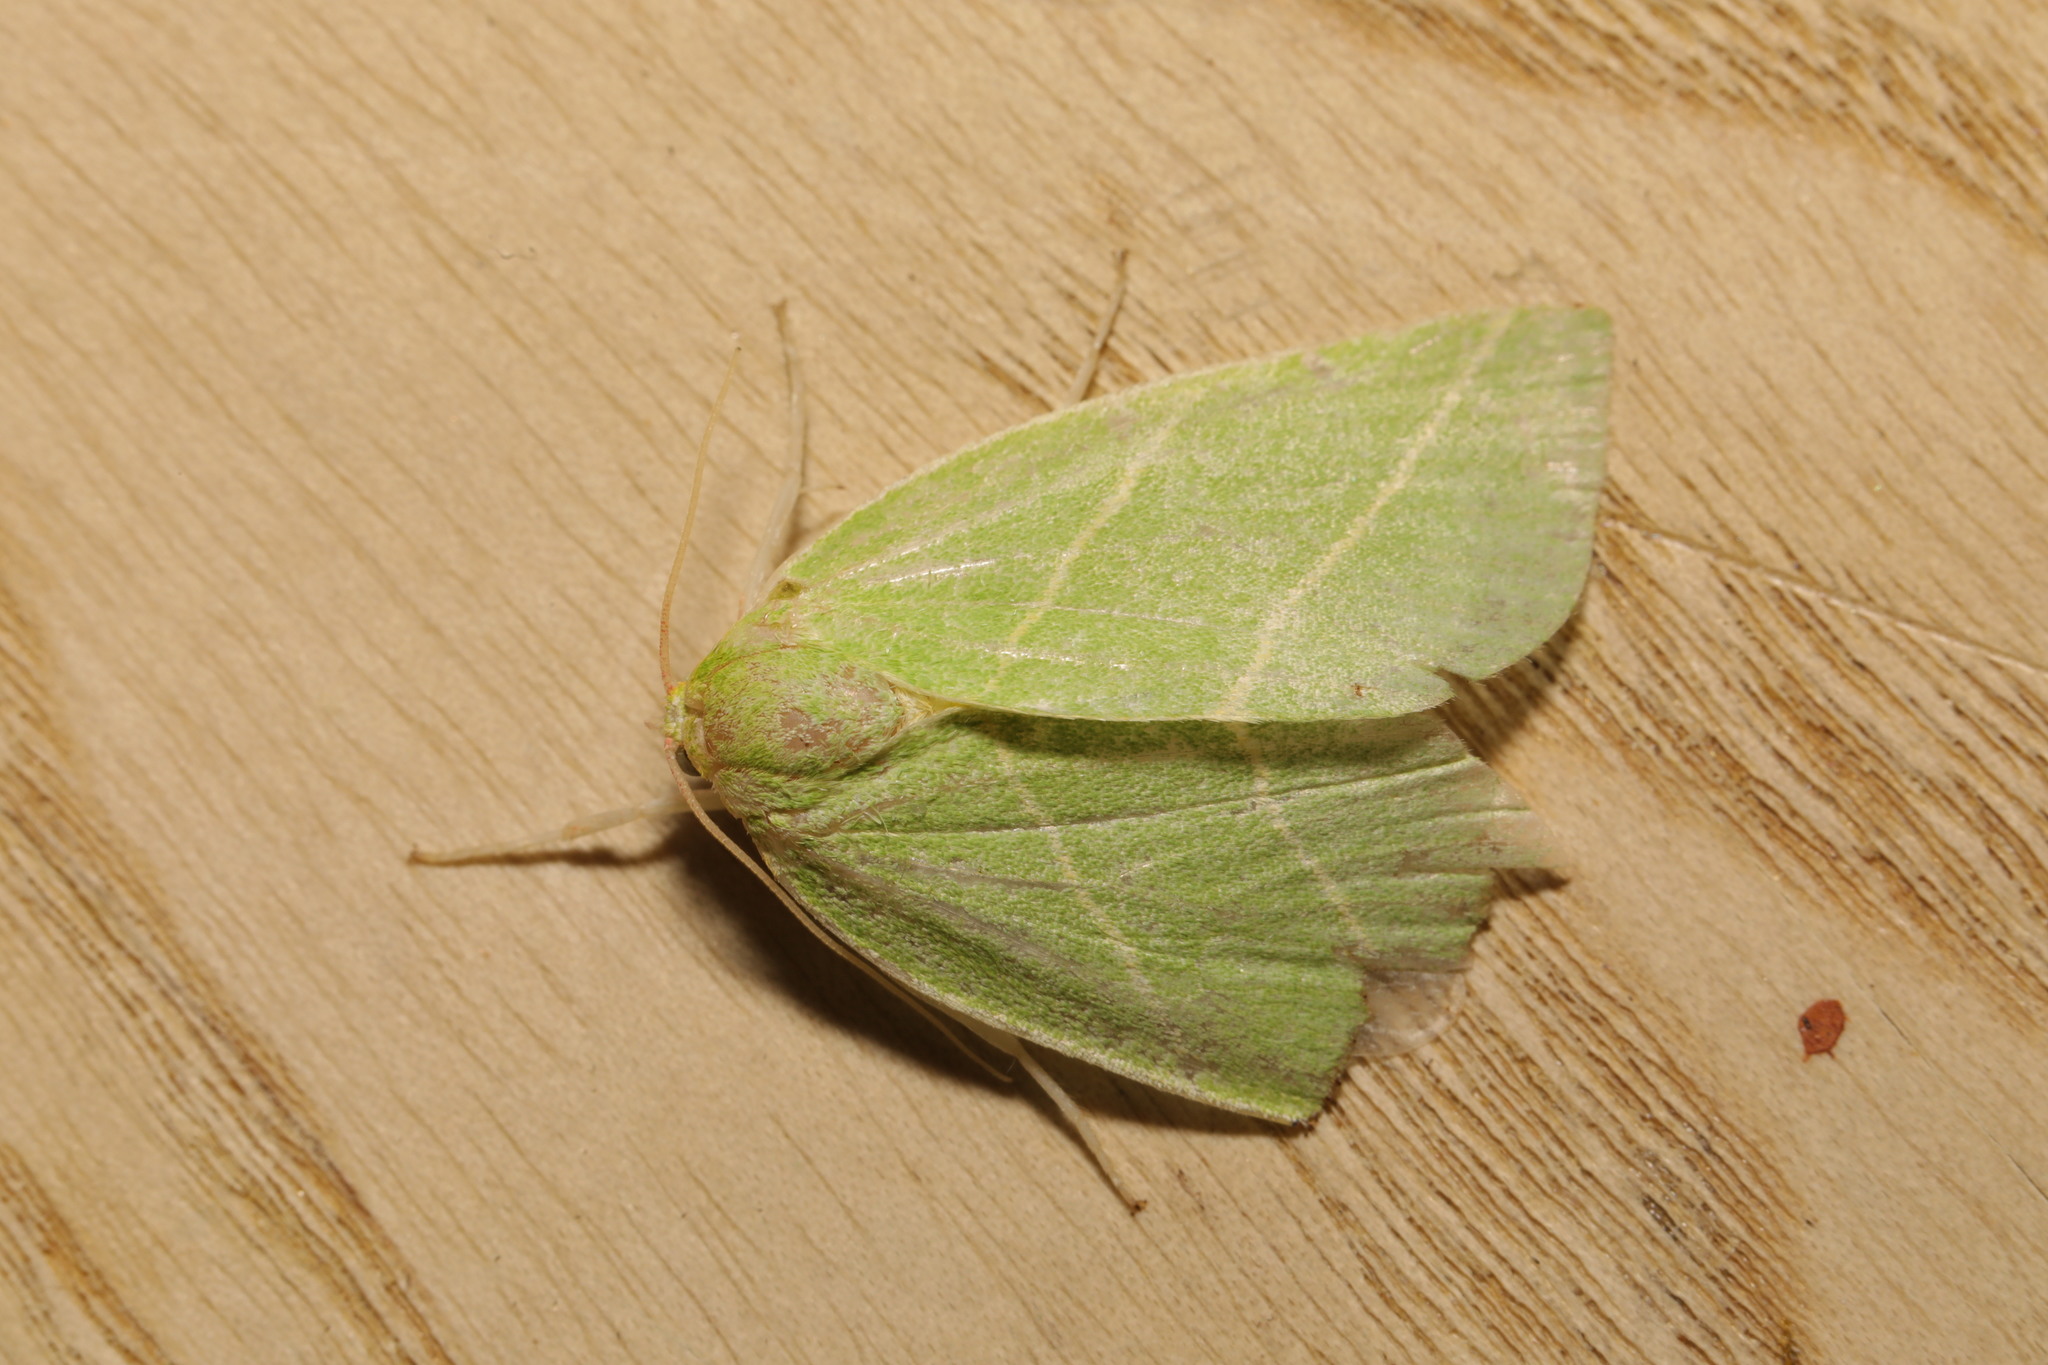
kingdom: Animalia
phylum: Arthropoda
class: Insecta
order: Lepidoptera
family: Nolidae
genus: Bena
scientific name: Bena bicolorana
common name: Scarce silver-lines
